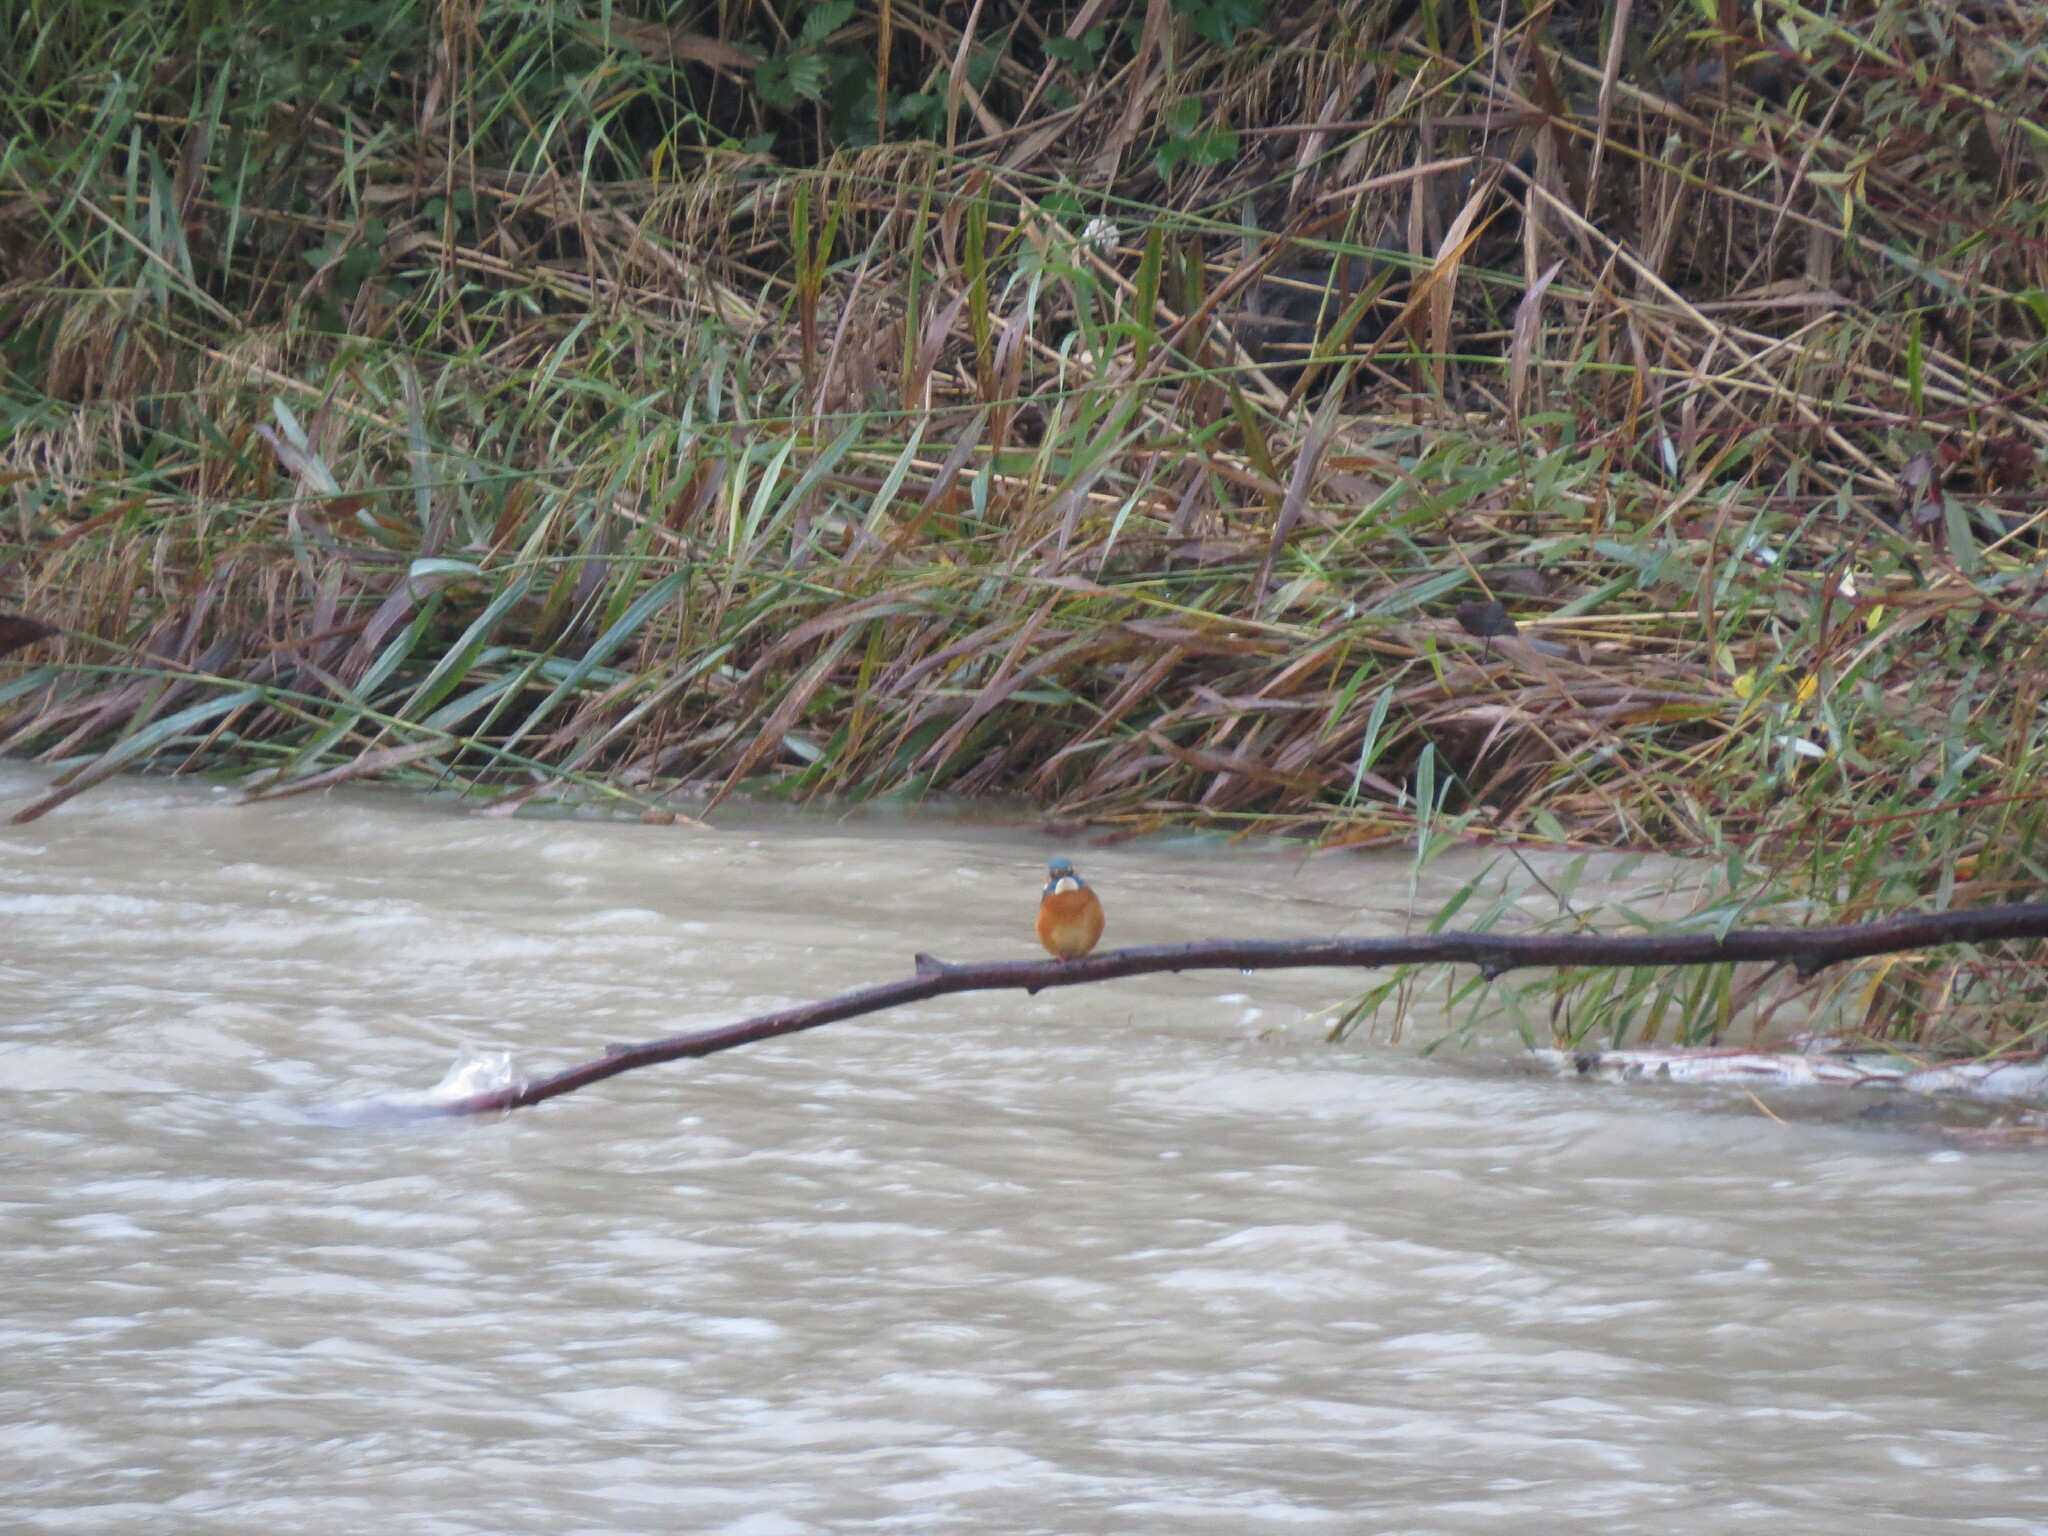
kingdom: Animalia
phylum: Chordata
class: Aves
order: Coraciiformes
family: Alcedinidae
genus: Alcedo
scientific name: Alcedo atthis
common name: Common kingfisher
